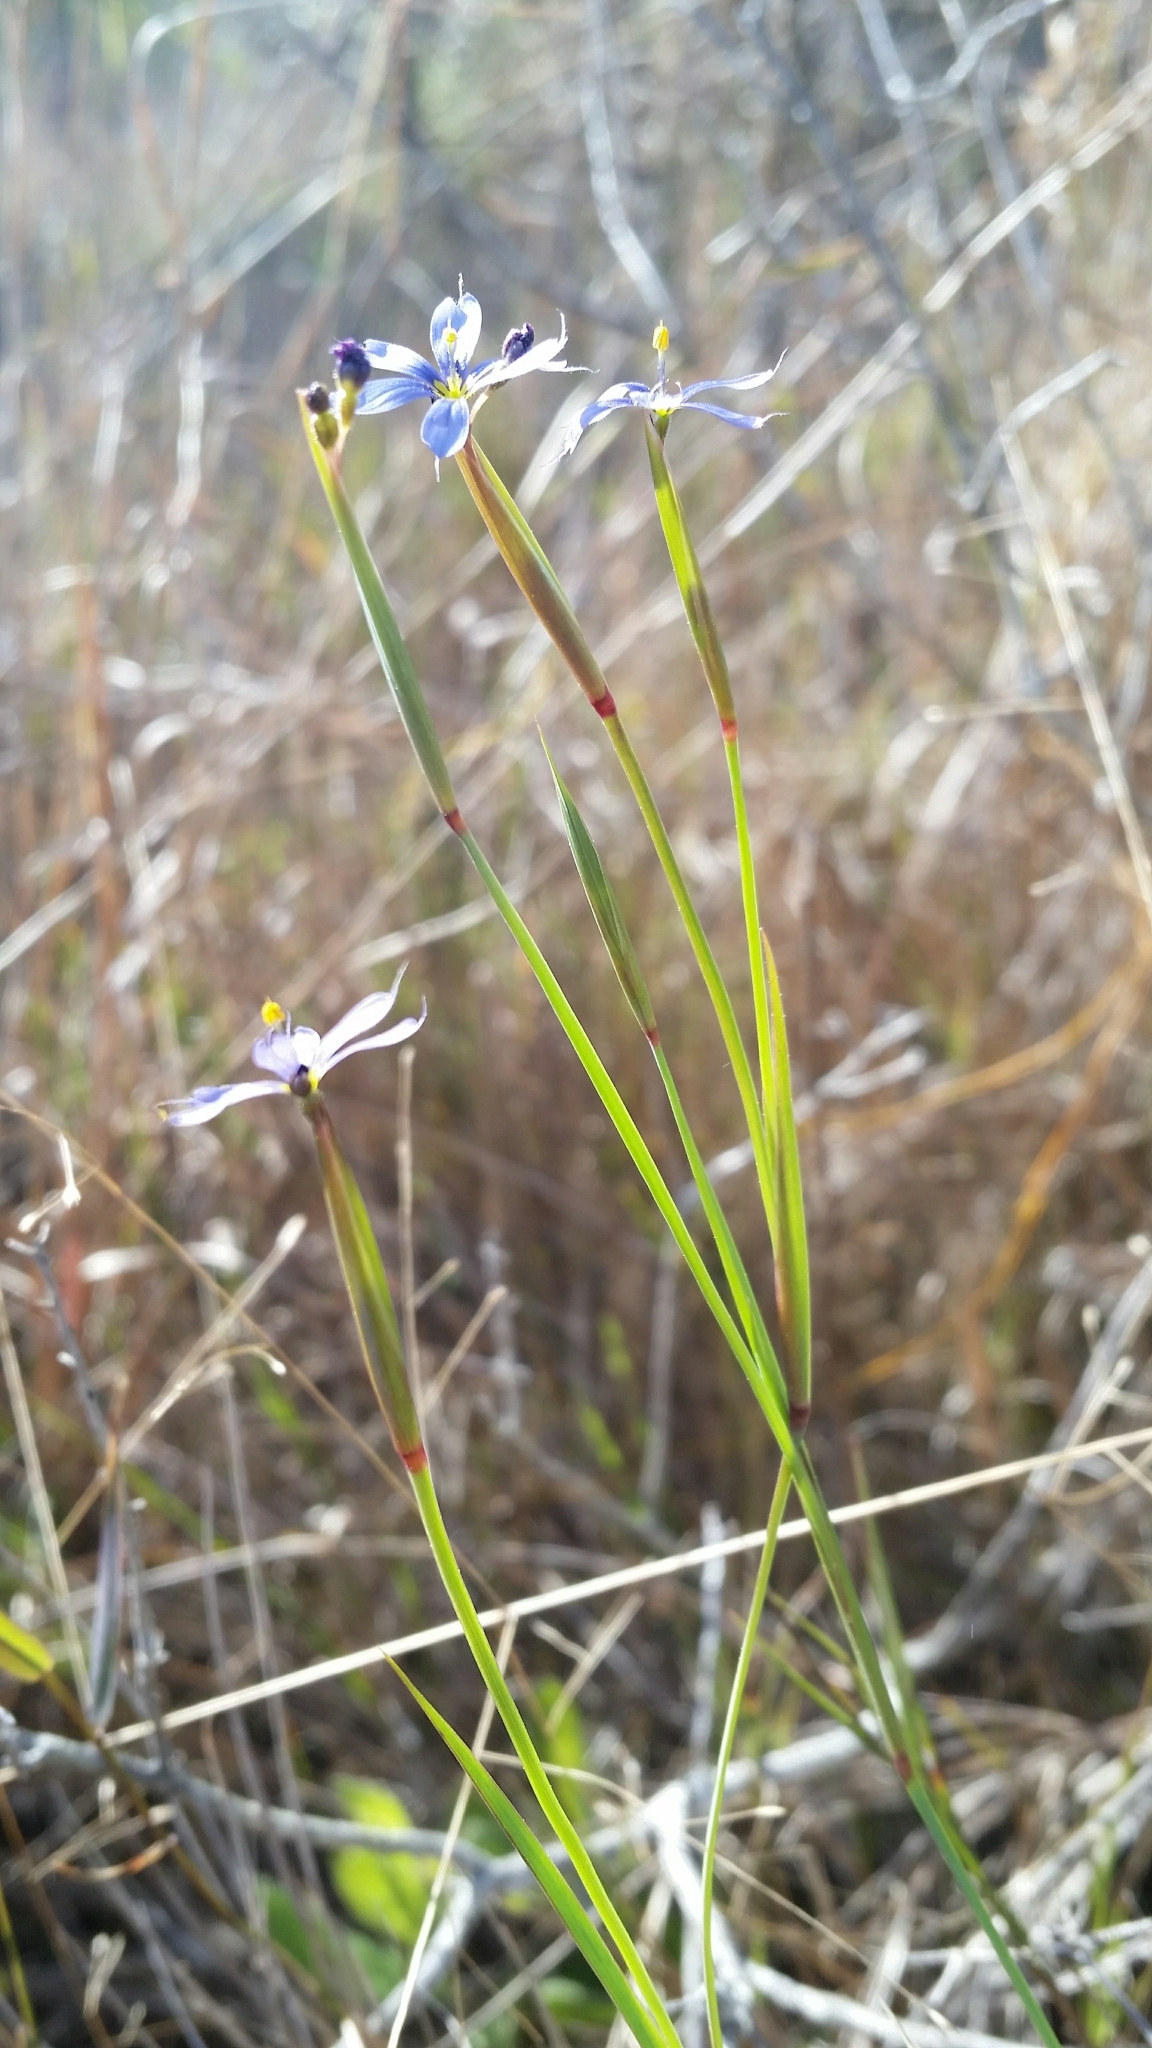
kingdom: Plantae
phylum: Tracheophyta
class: Liliopsida
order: Asparagales
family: Iridaceae
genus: Sisyrinchium
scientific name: Sisyrinchium miamiense
